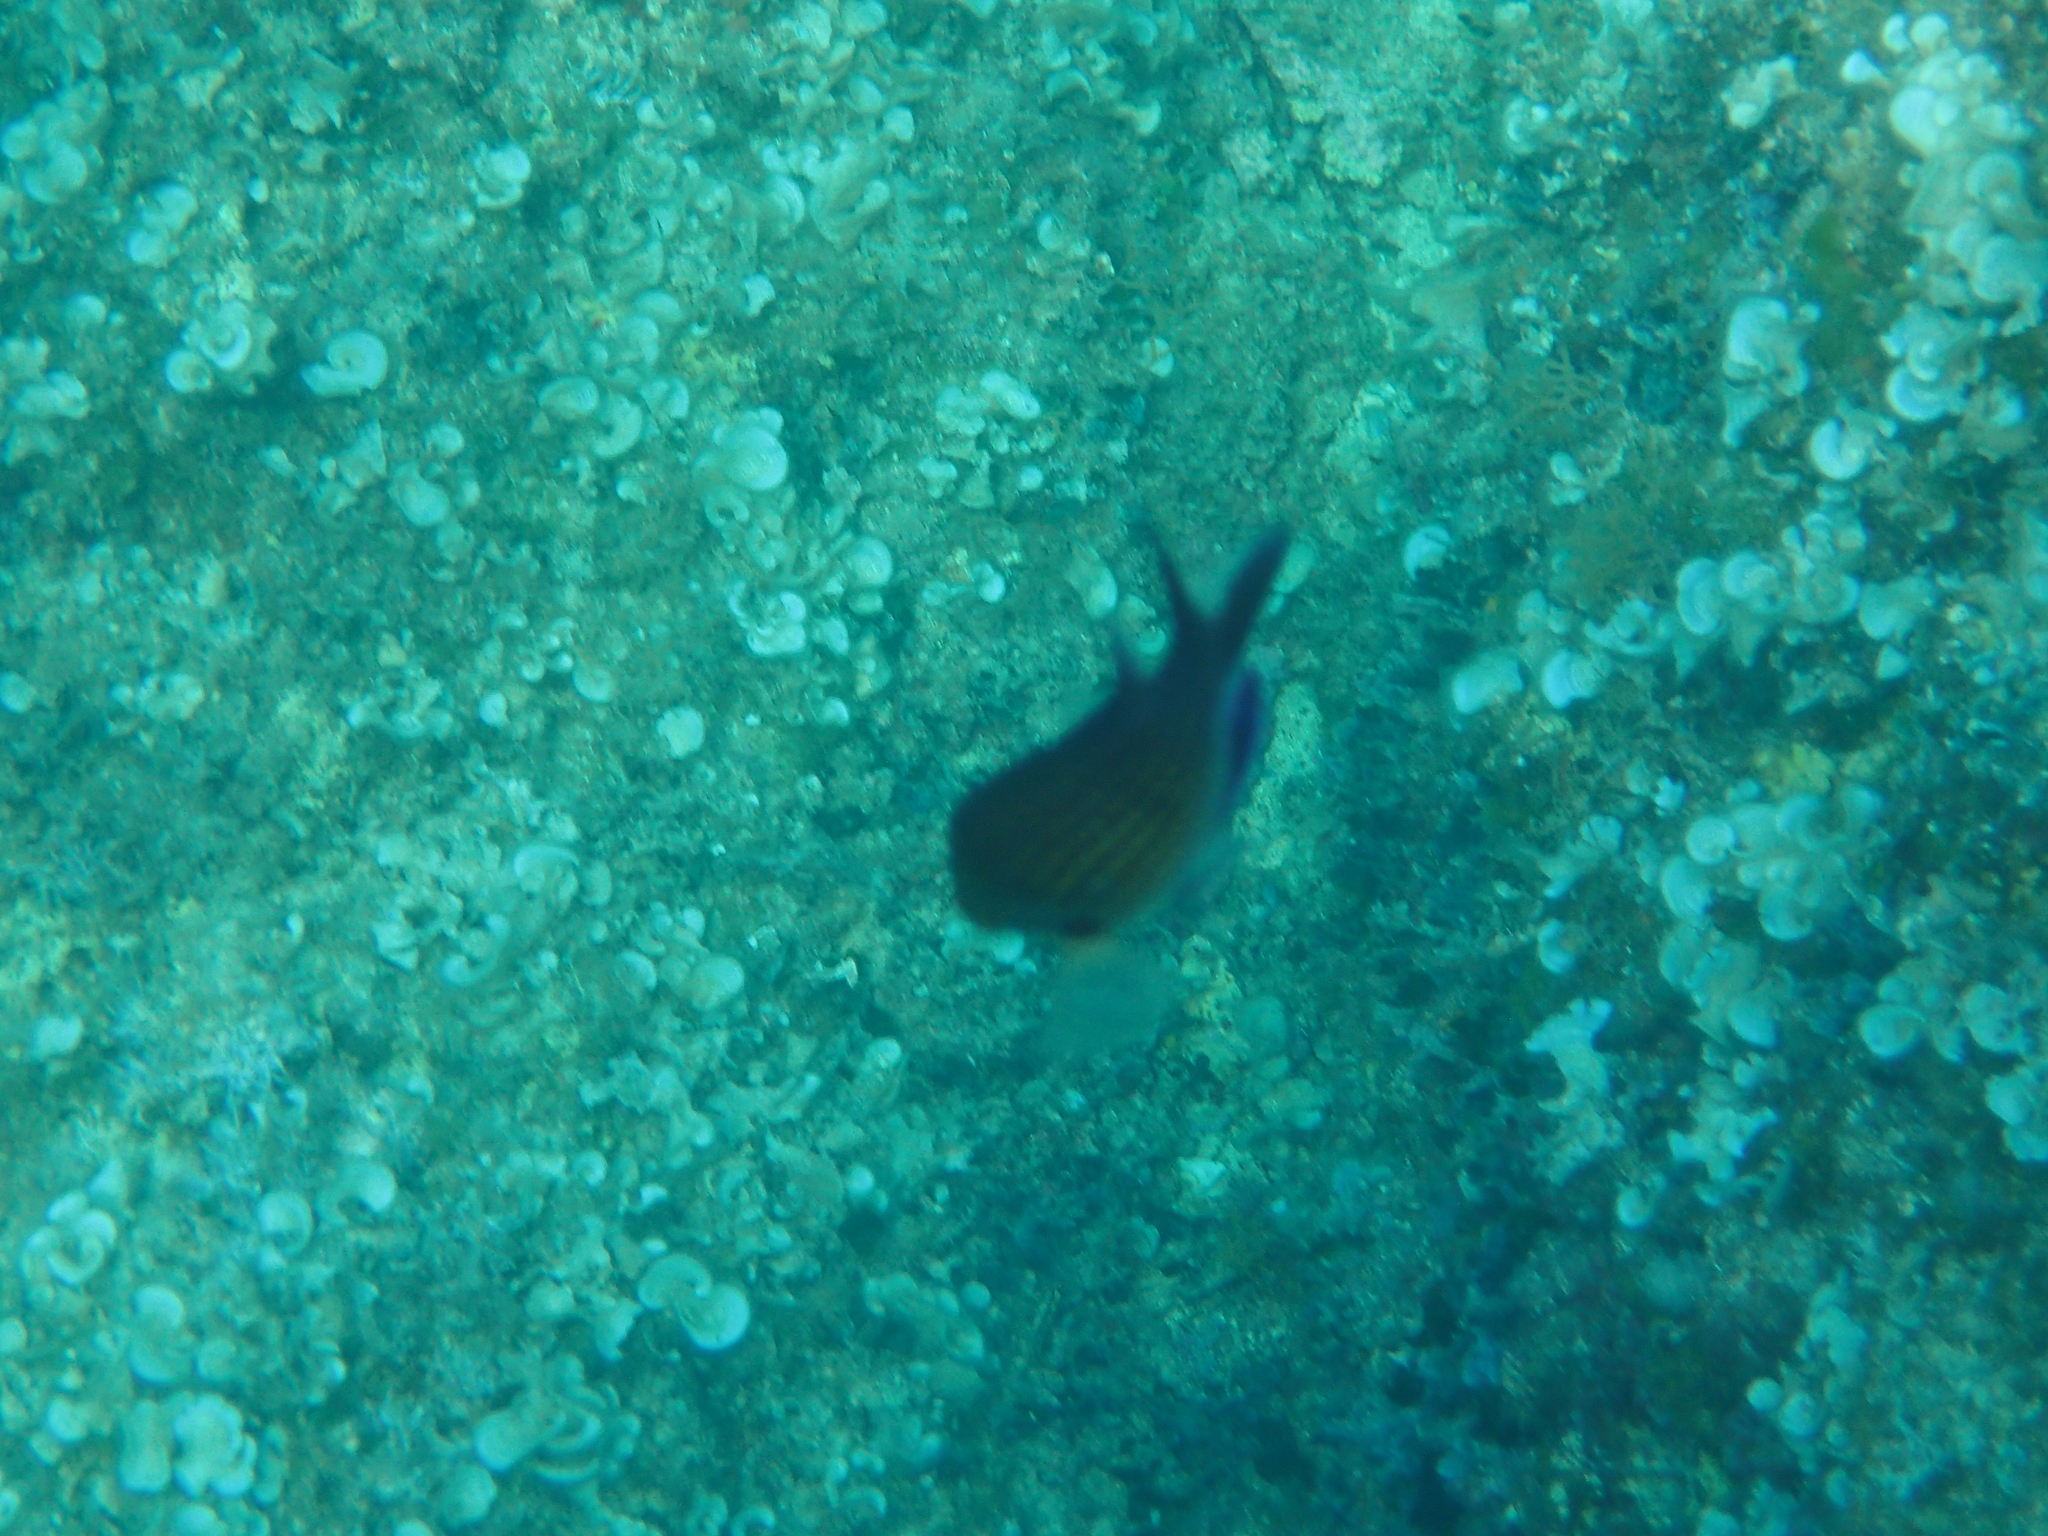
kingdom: Animalia
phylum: Chordata
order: Perciformes
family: Pomacentridae
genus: Chromis
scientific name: Chromis chromis
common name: Damselfish
